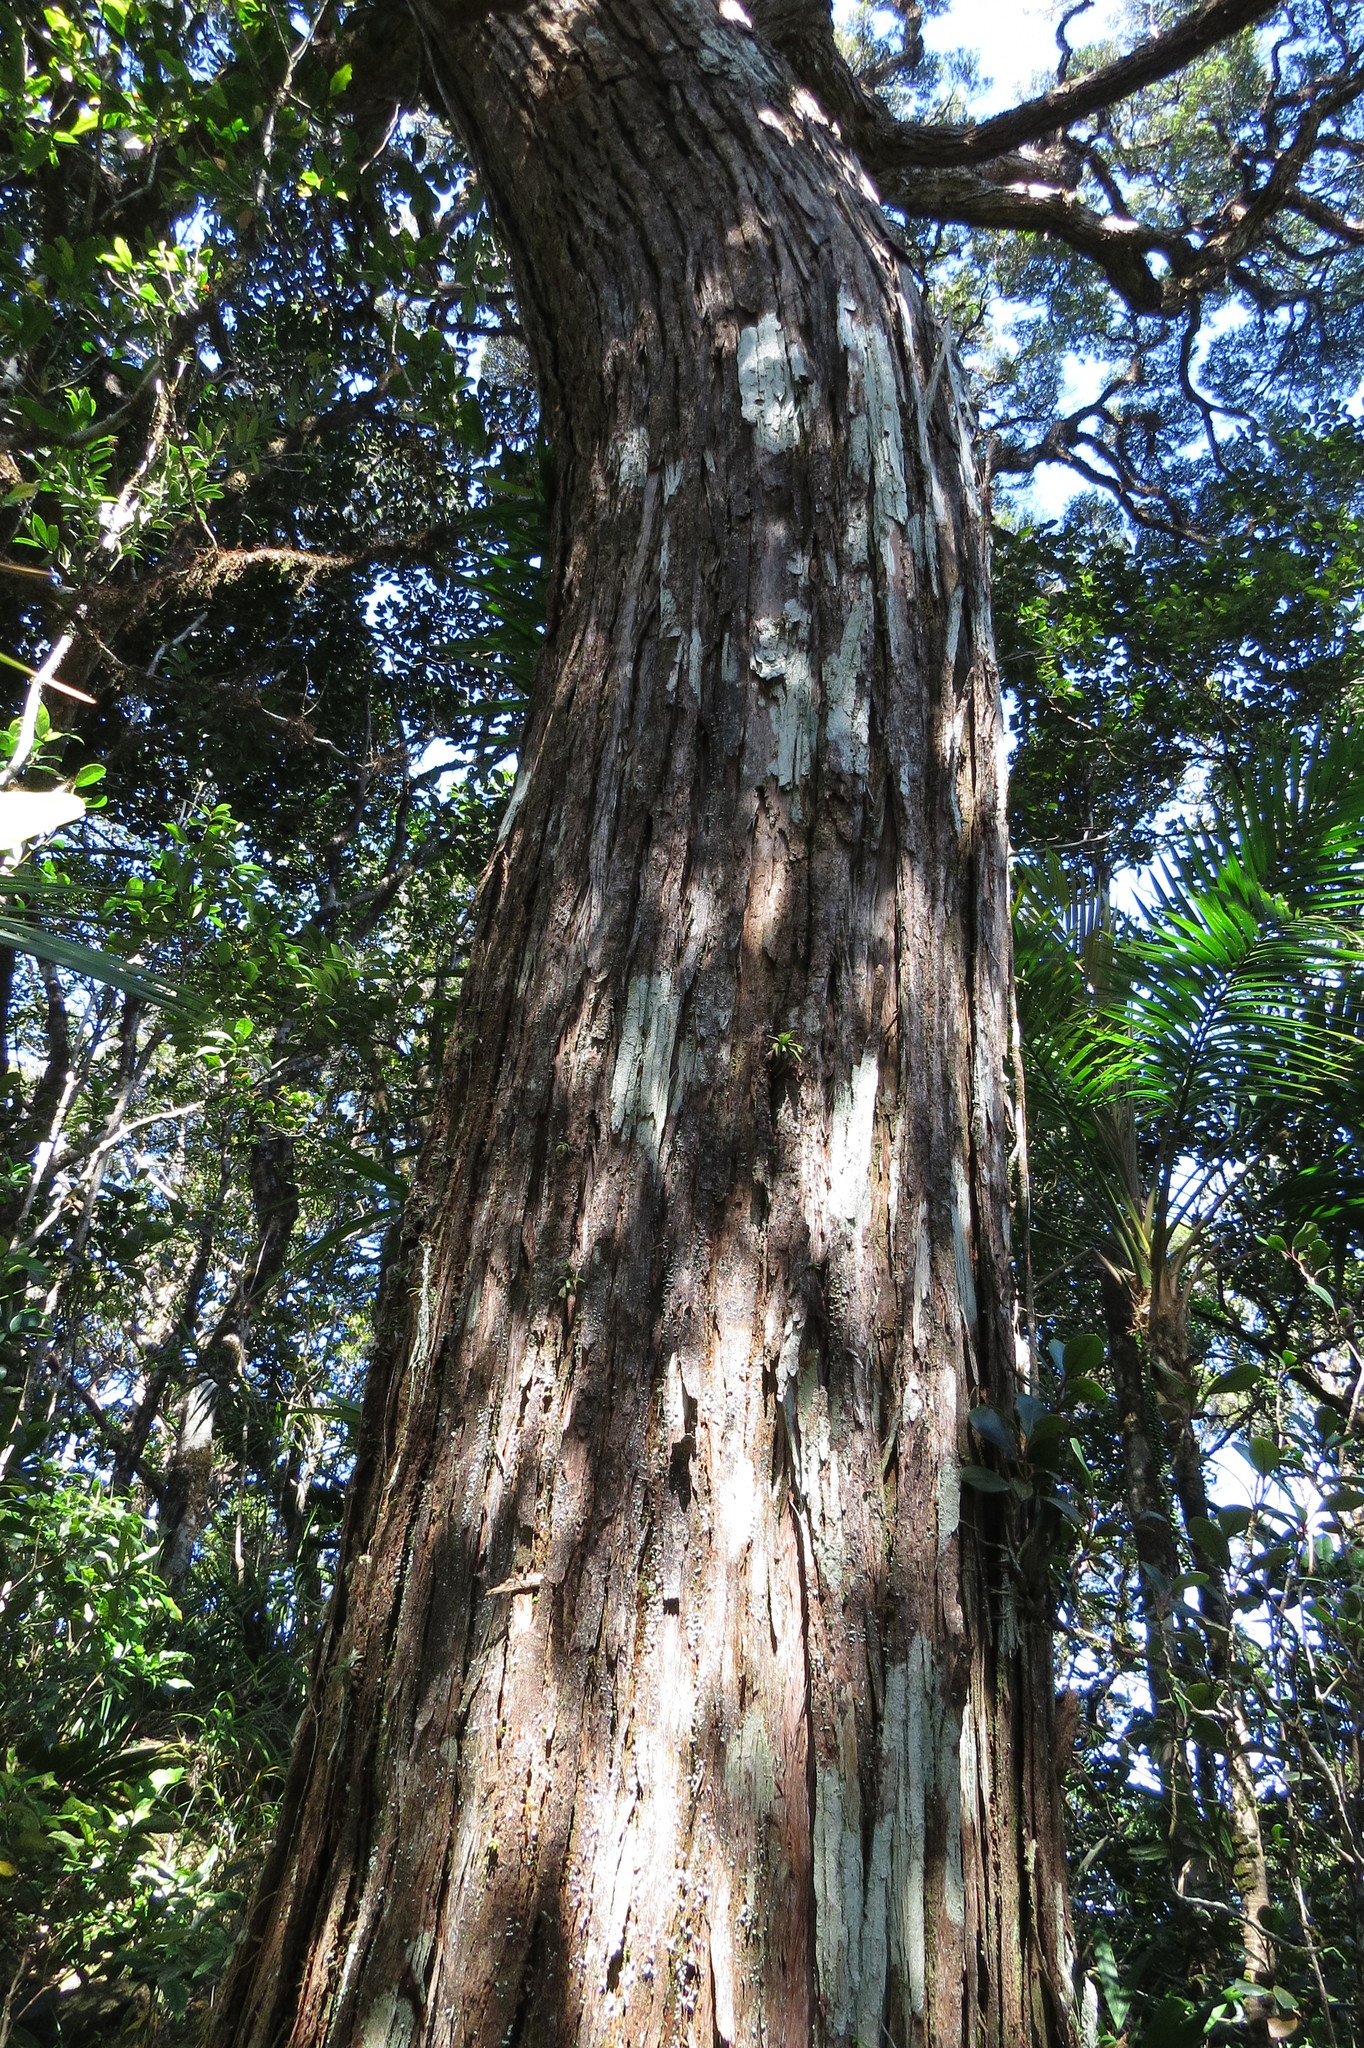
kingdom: Plantae
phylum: Tracheophyta
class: Magnoliopsida
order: Myrtales
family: Myrtaceae
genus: Leptospermum
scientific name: Leptospermum wooroonooran
